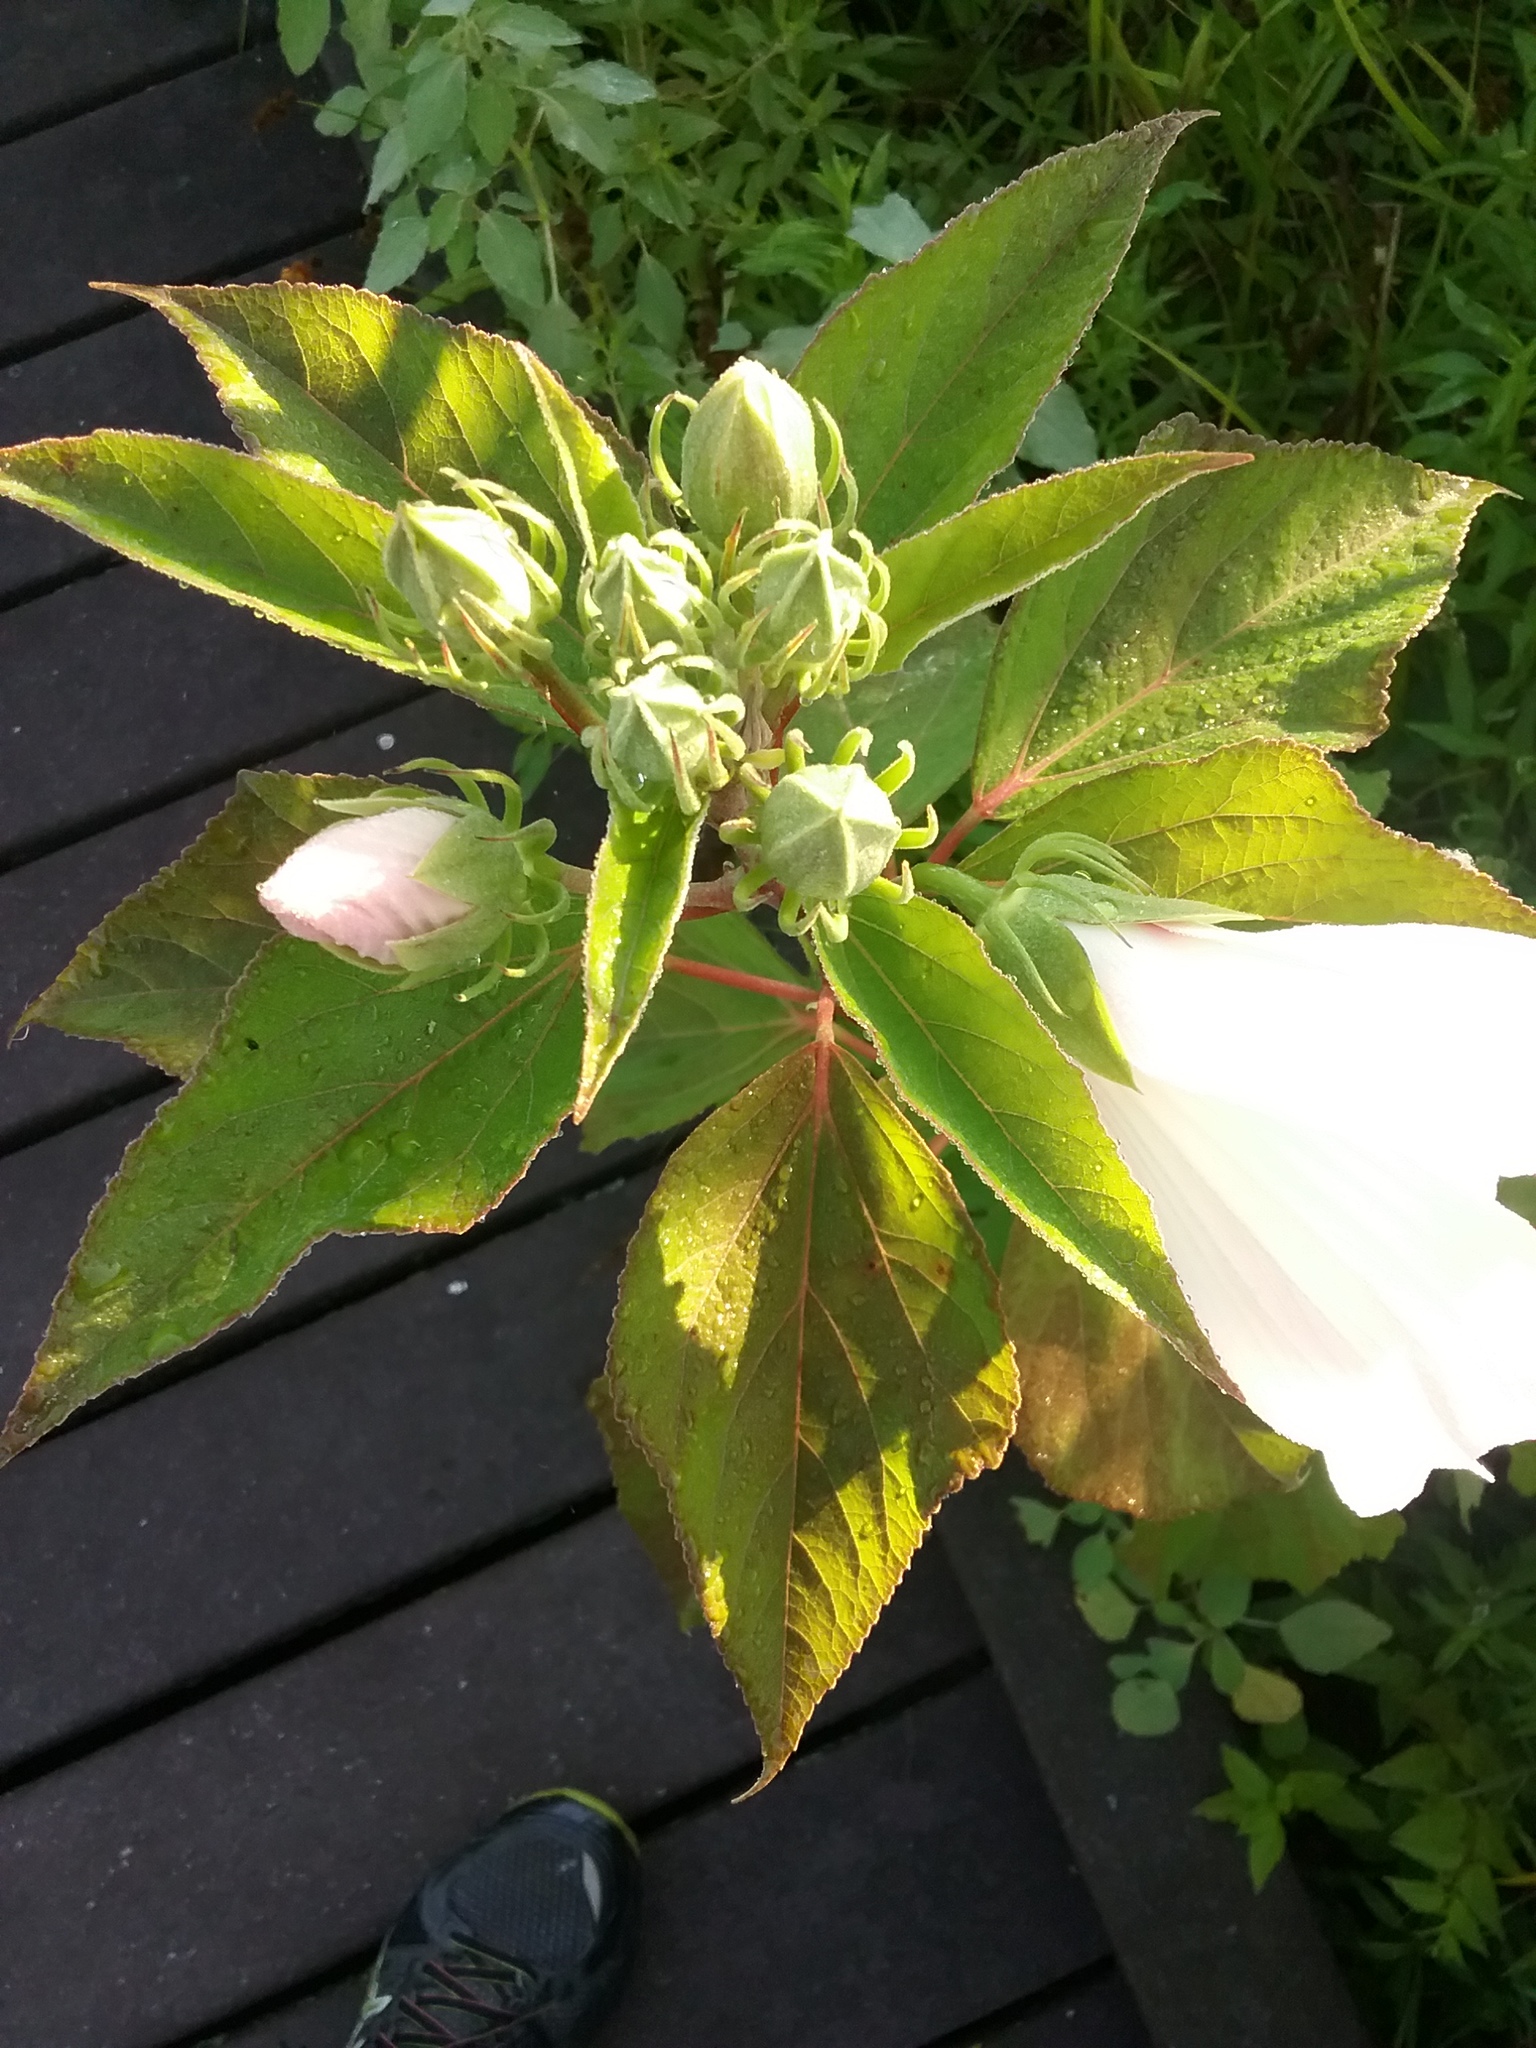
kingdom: Plantae
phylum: Tracheophyta
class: Magnoliopsida
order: Malvales
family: Malvaceae
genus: Hibiscus
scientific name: Hibiscus moscheutos
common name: Common rose-mallow
